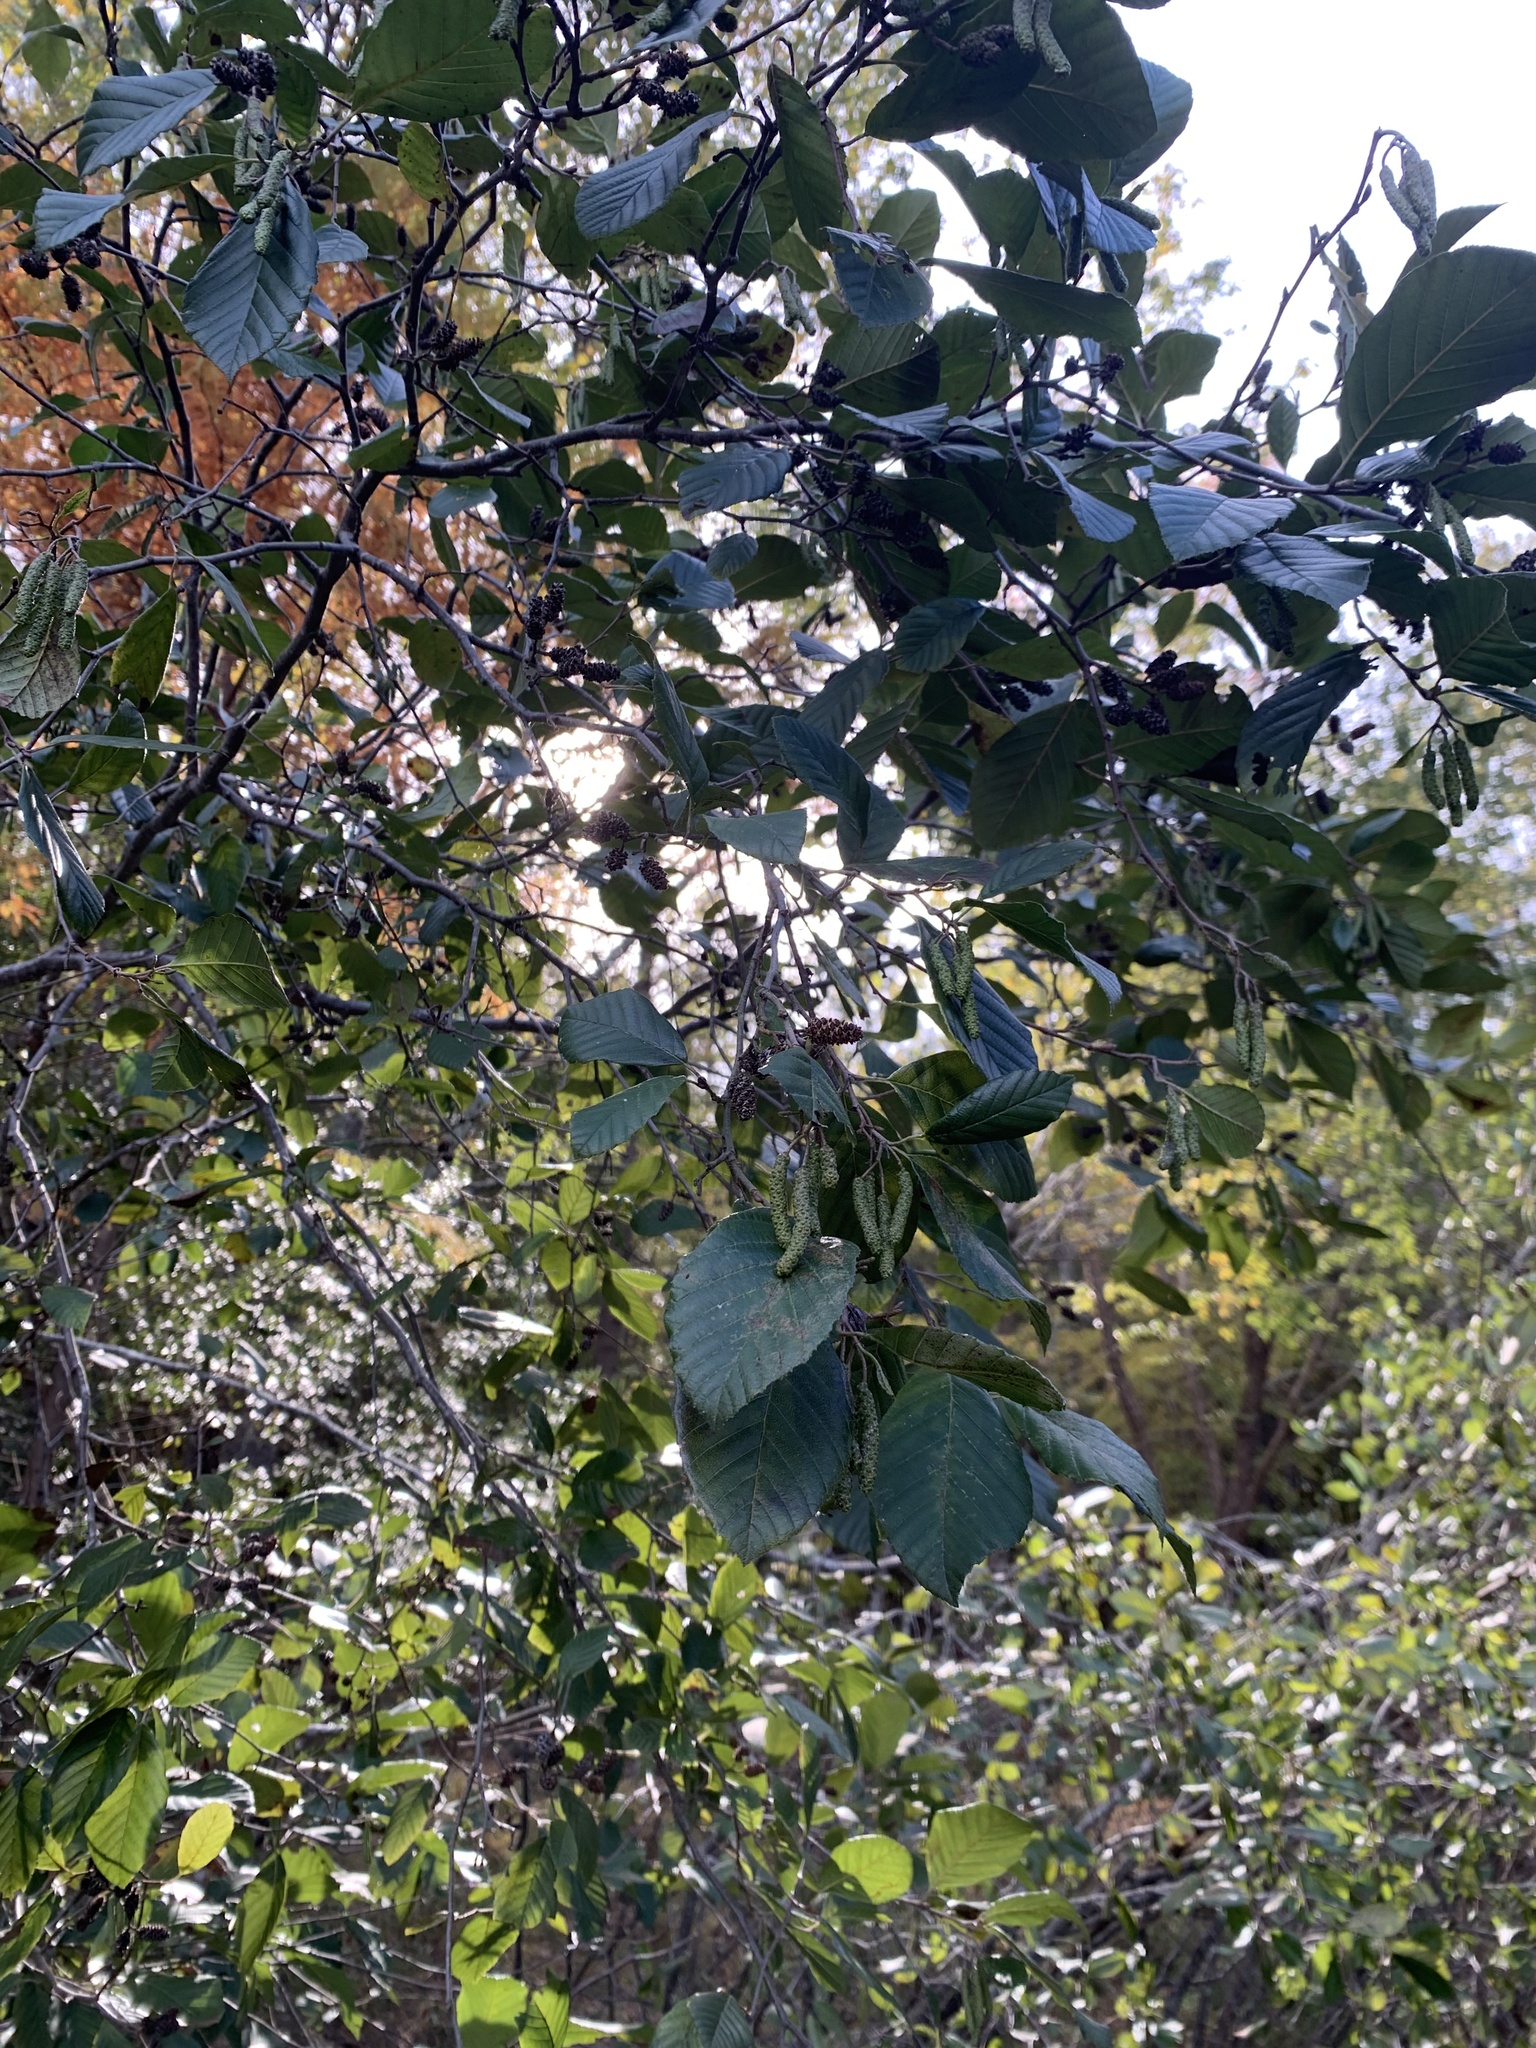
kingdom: Plantae
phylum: Tracheophyta
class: Magnoliopsida
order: Fagales
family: Betulaceae
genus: Alnus
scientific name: Alnus serrulata
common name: Hazel alder
